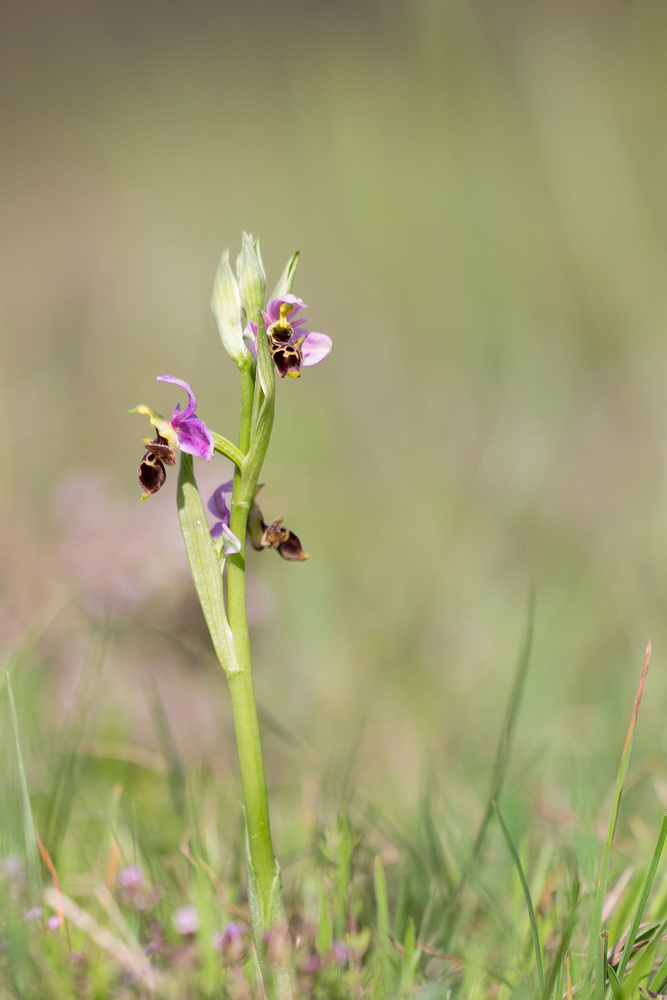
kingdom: Plantae
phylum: Tracheophyta
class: Liliopsida
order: Asparagales
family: Orchidaceae
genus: Ophrys
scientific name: Ophrys scolopax
